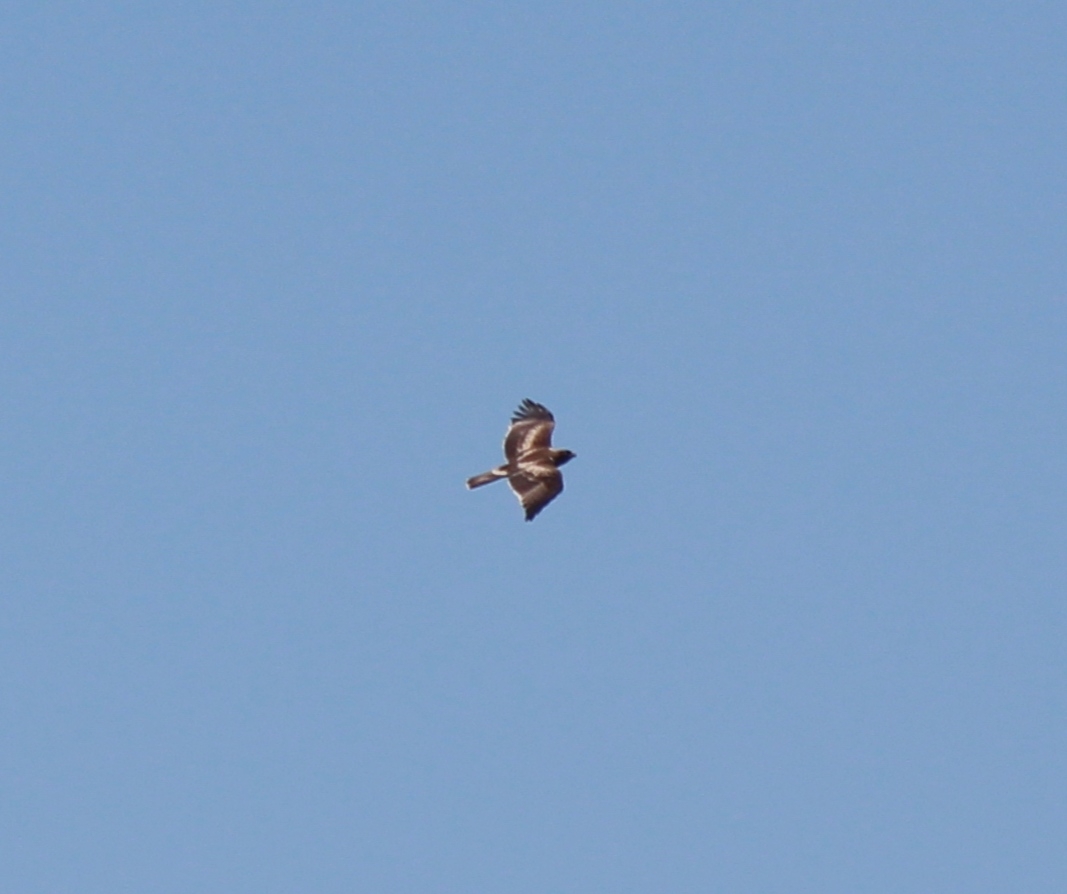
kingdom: Animalia
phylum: Chordata
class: Aves
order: Accipitriformes
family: Accipitridae
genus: Hieraaetus
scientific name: Hieraaetus pennatus
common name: Booted eagle
